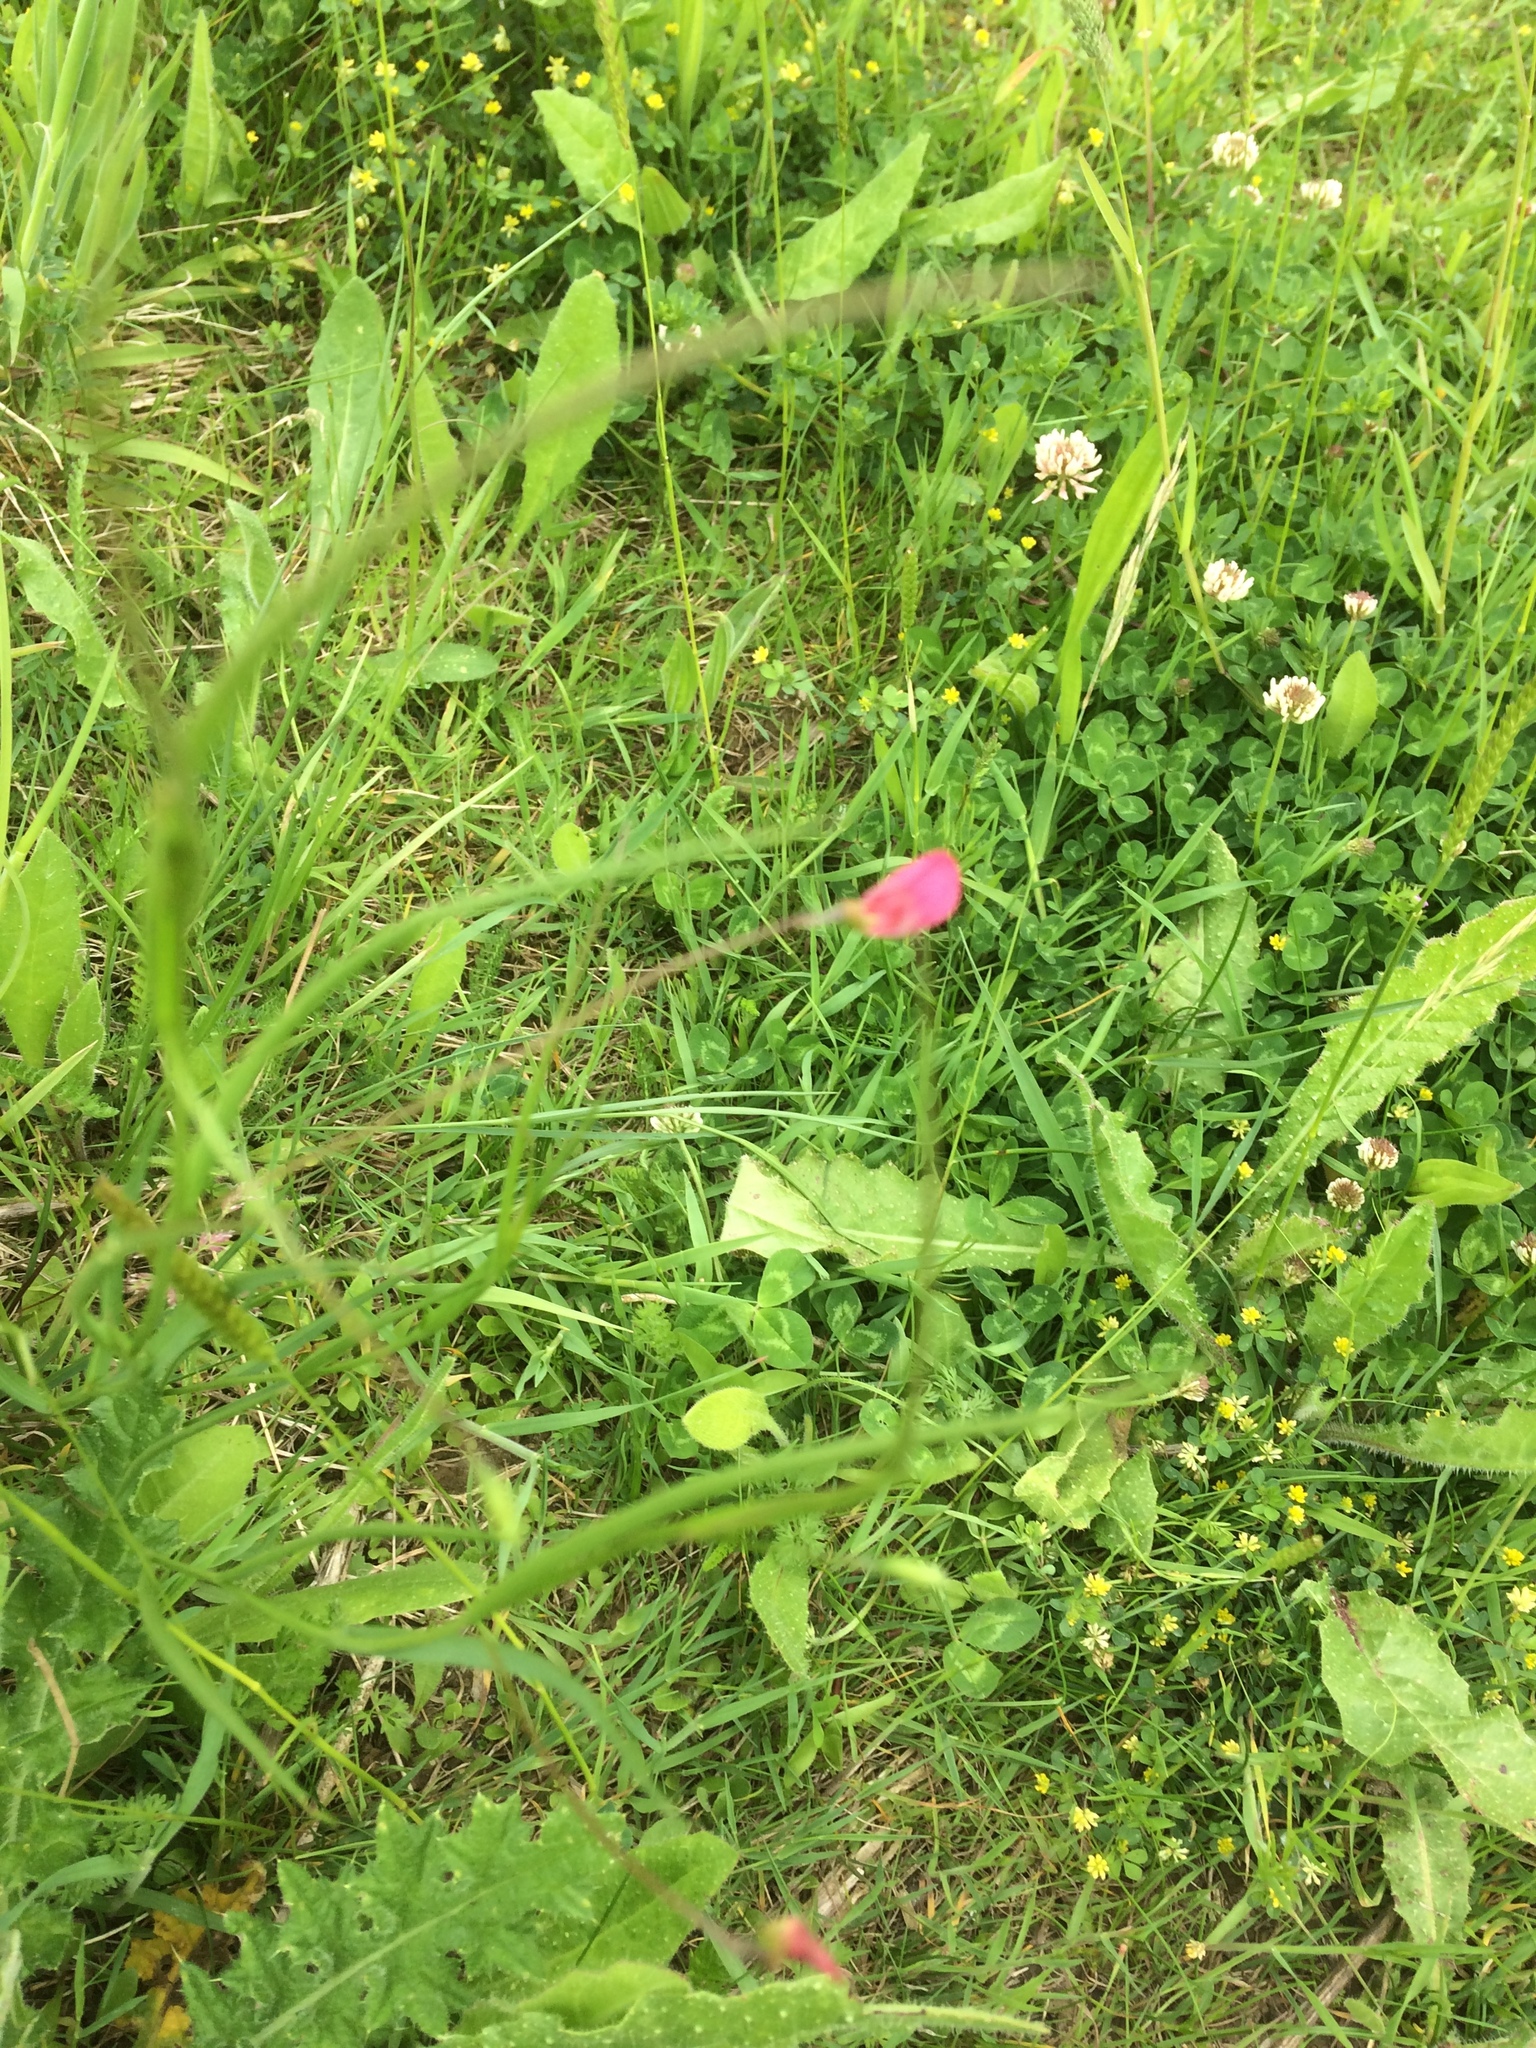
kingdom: Plantae
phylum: Tracheophyta
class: Magnoliopsida
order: Fabales
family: Fabaceae
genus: Lathyrus
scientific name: Lathyrus nissolia
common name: Grass vetchling
